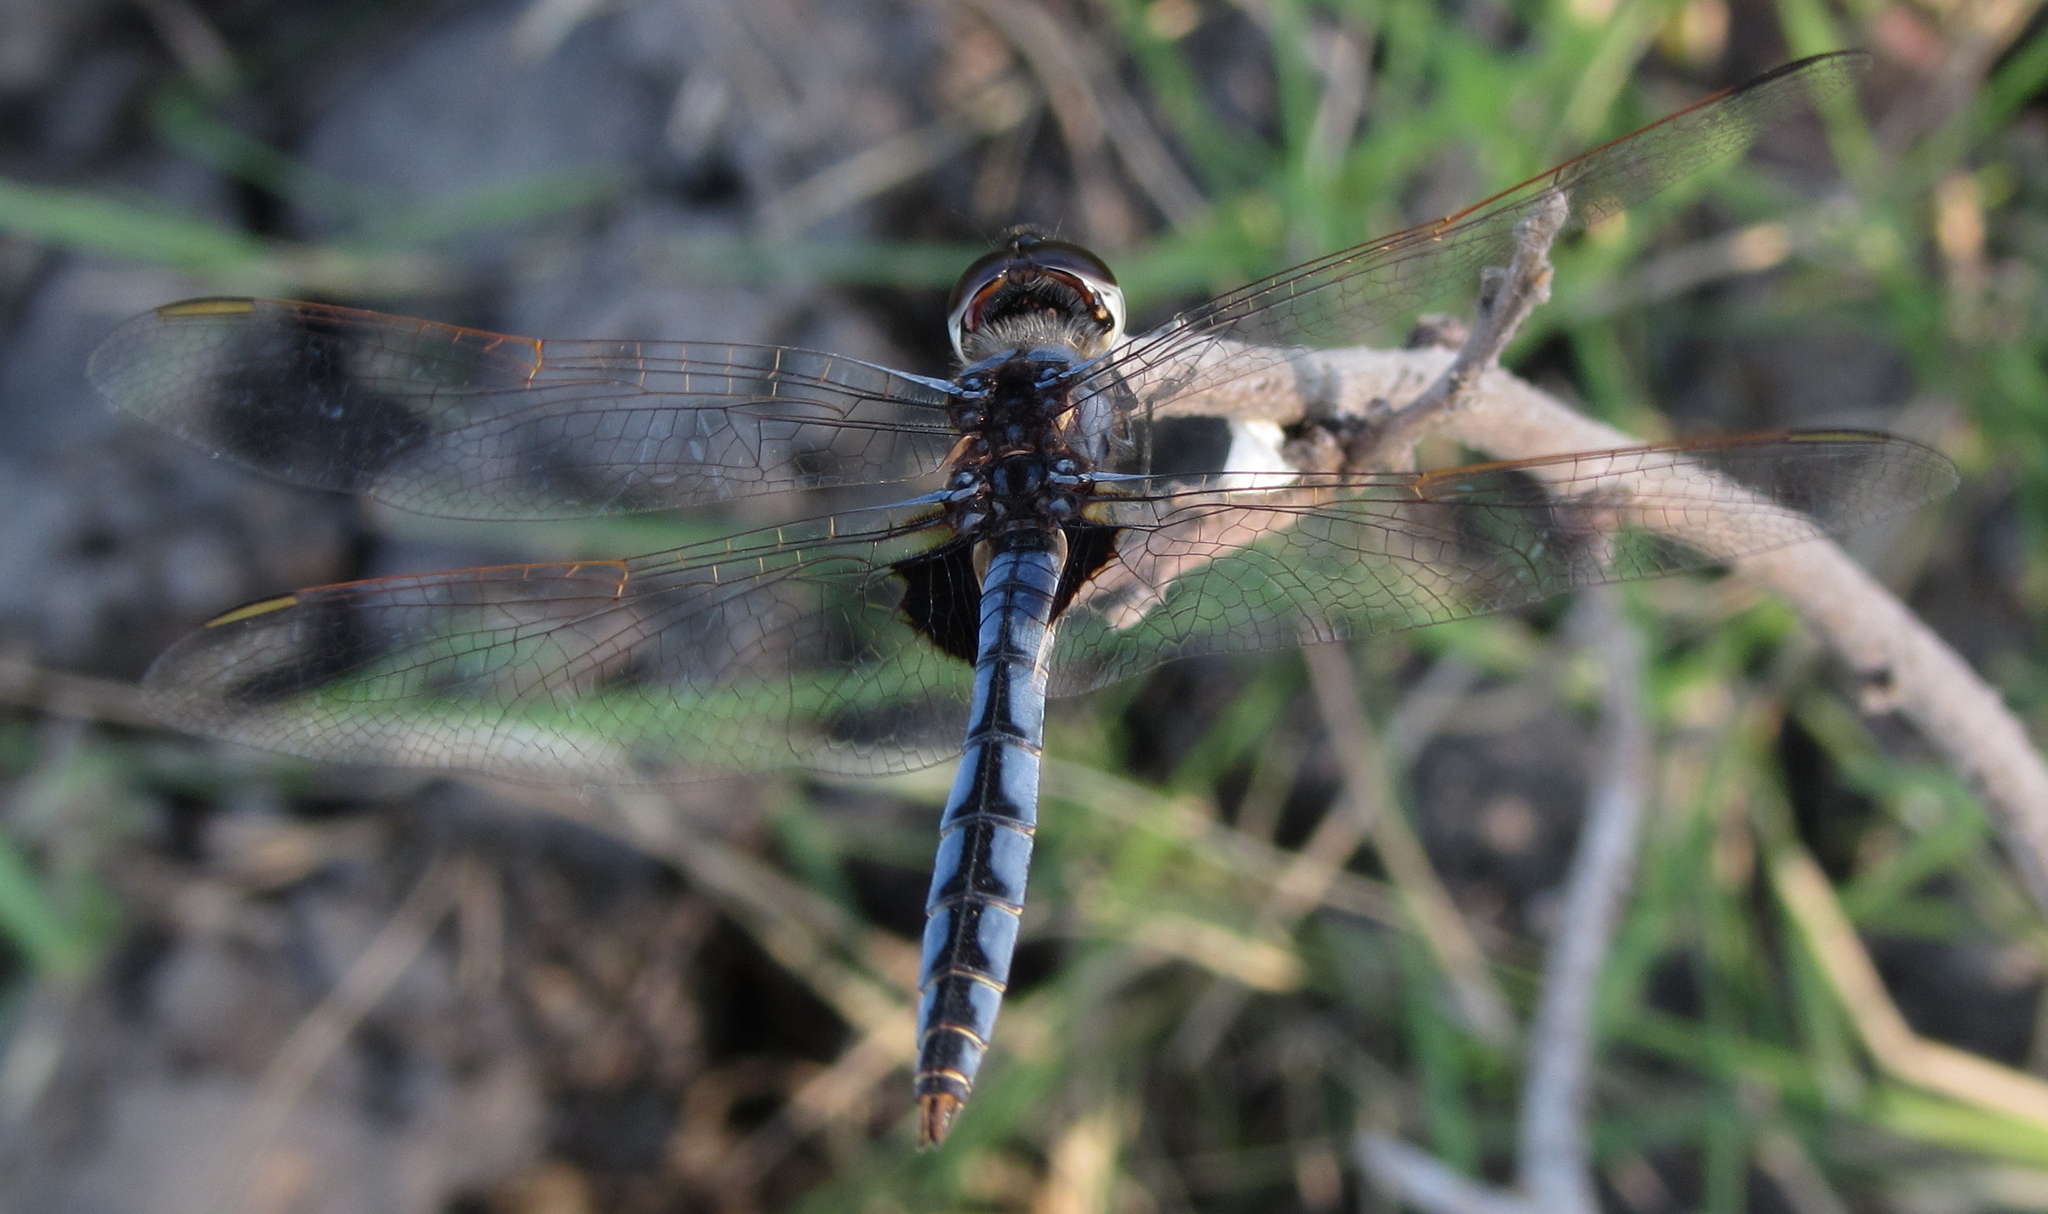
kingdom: Animalia
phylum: Arthropoda
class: Insecta
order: Odonata
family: Libellulidae
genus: Urothemis
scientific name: Urothemis edwardsii
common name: Blue basker
